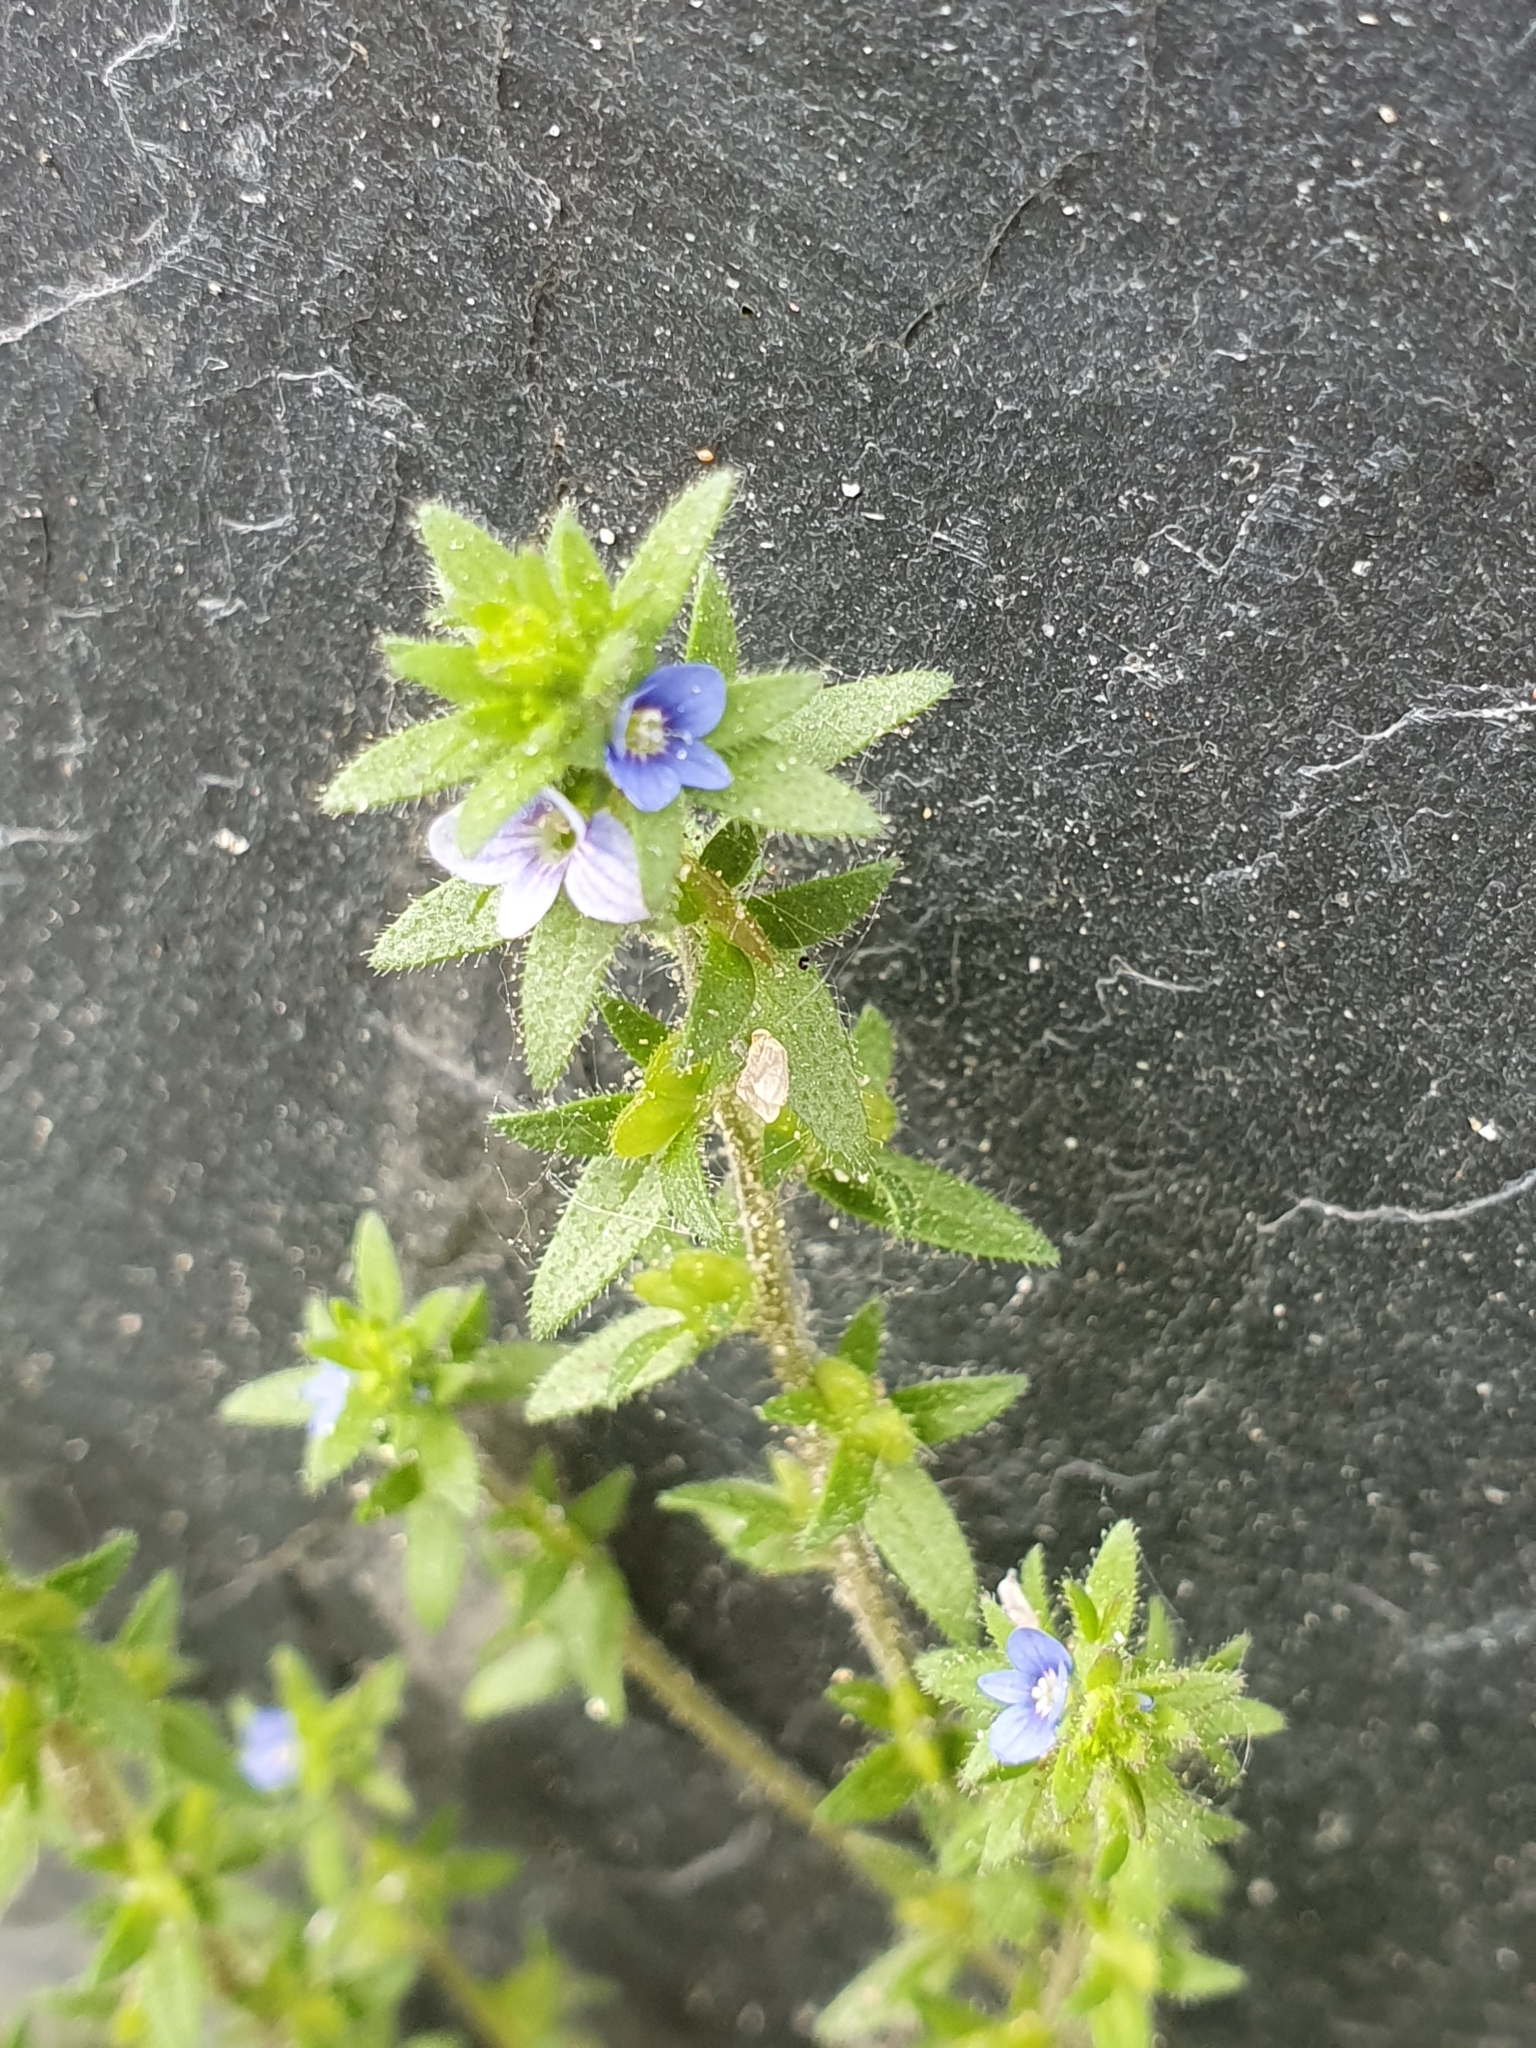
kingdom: Plantae
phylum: Tracheophyta
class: Magnoliopsida
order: Lamiales
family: Plantaginaceae
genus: Veronica
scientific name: Veronica arvensis
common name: Corn speedwell
